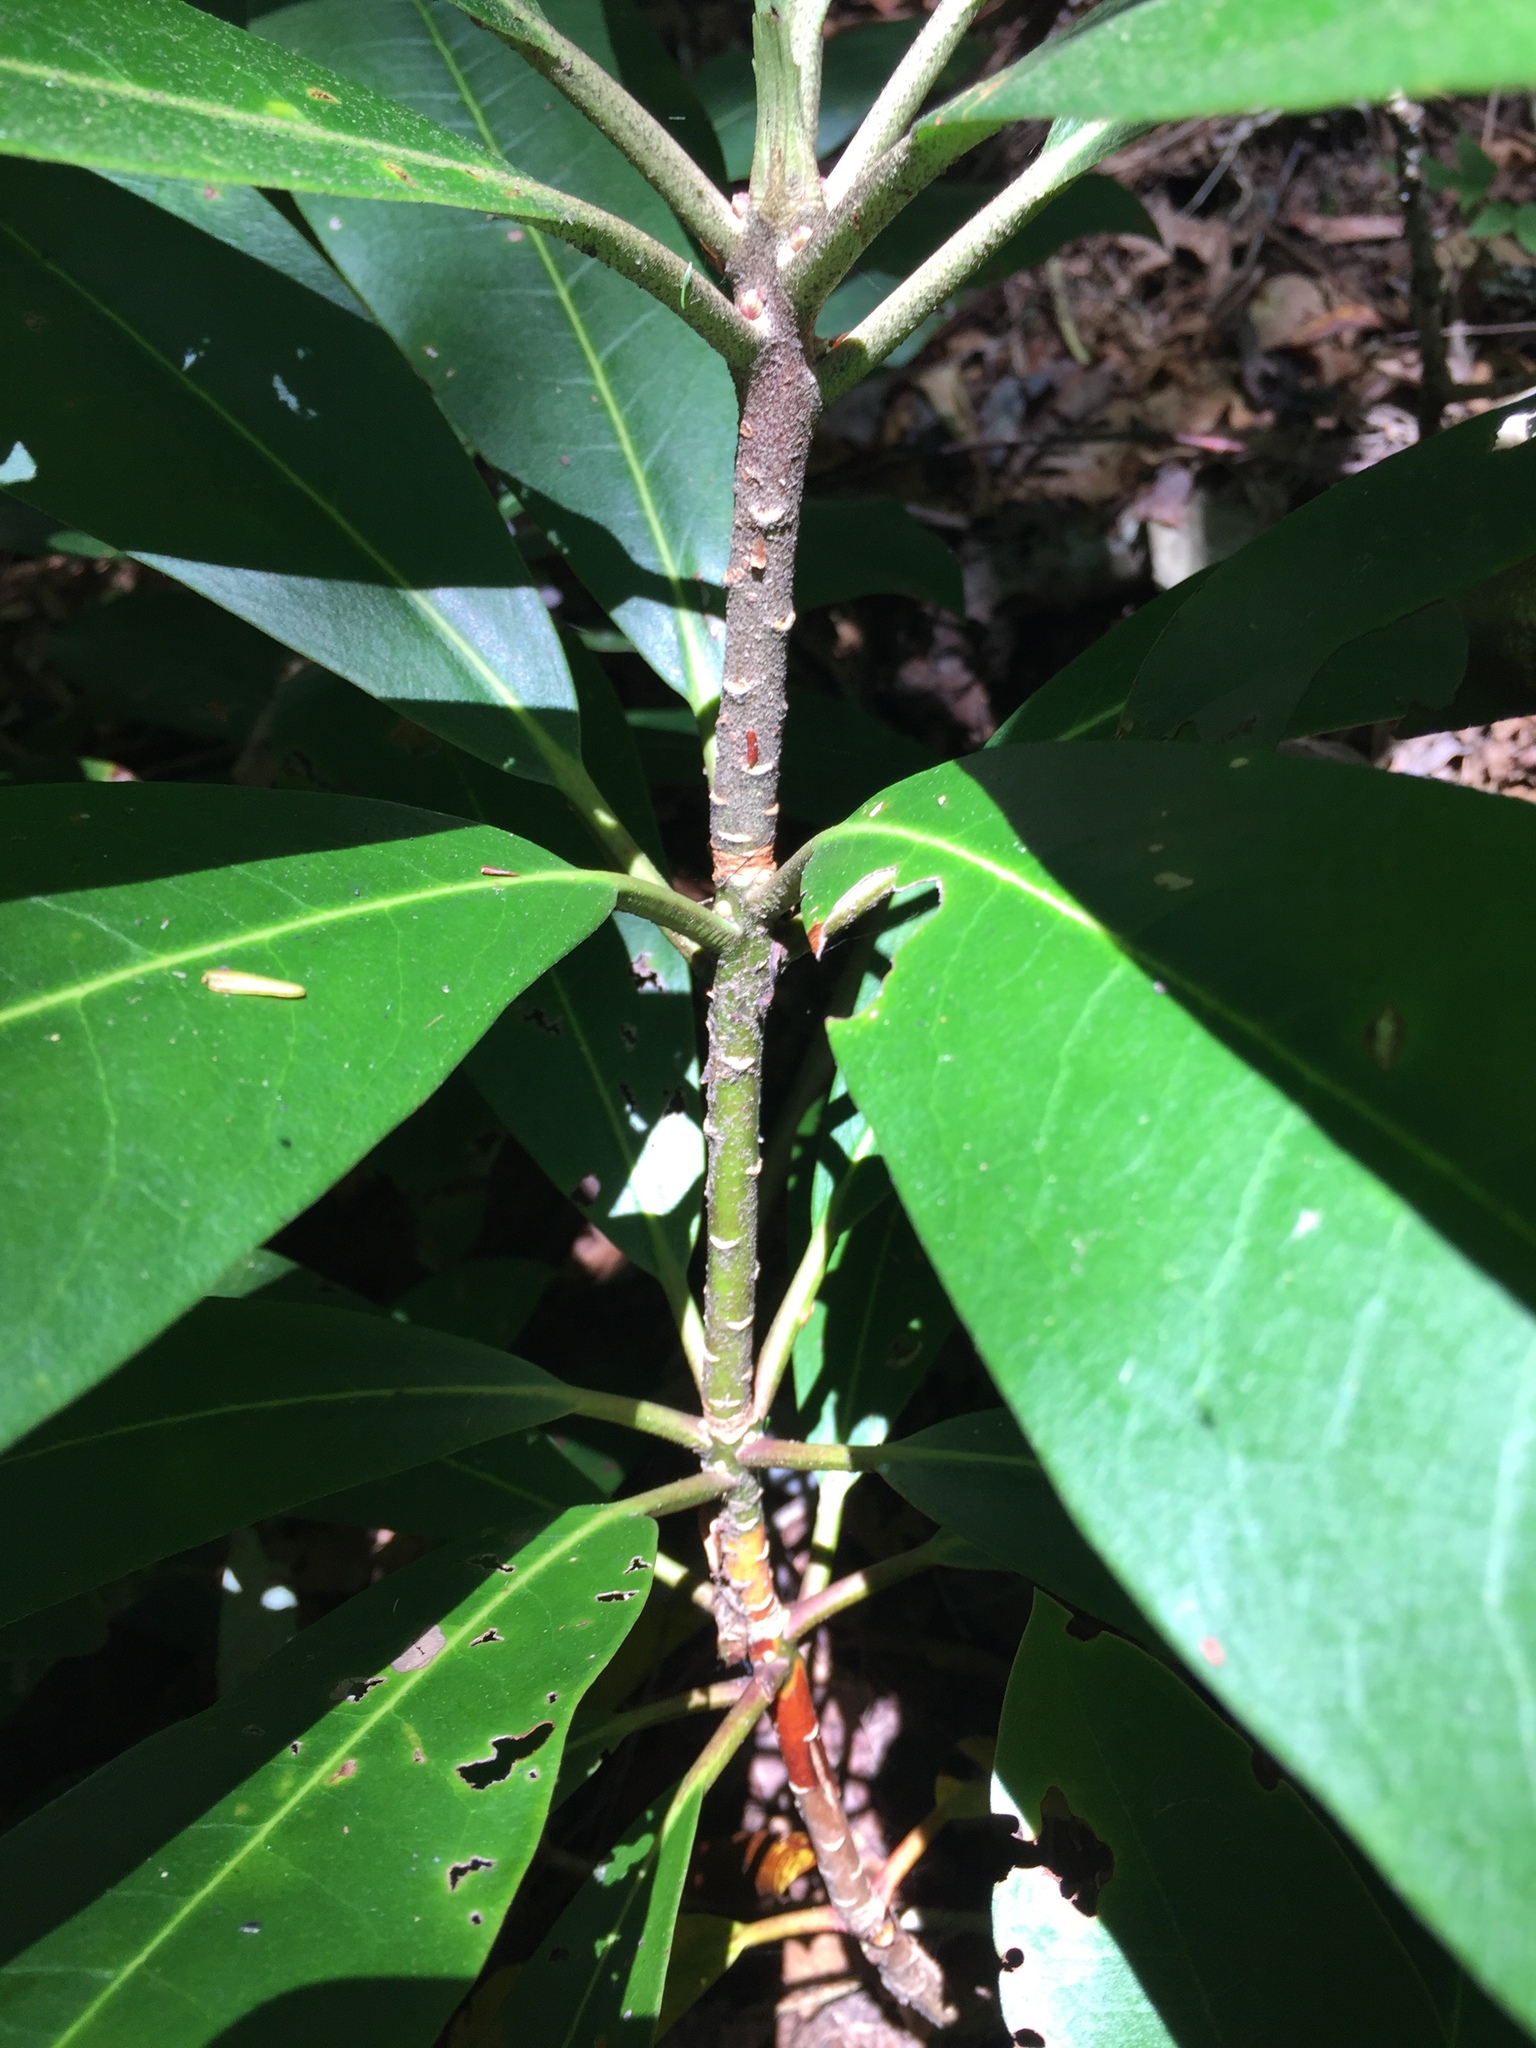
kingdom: Plantae
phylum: Tracheophyta
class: Magnoliopsida
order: Ericales
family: Ericaceae
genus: Rhododendron
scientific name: Rhododendron maximum
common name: Great rhododendron
